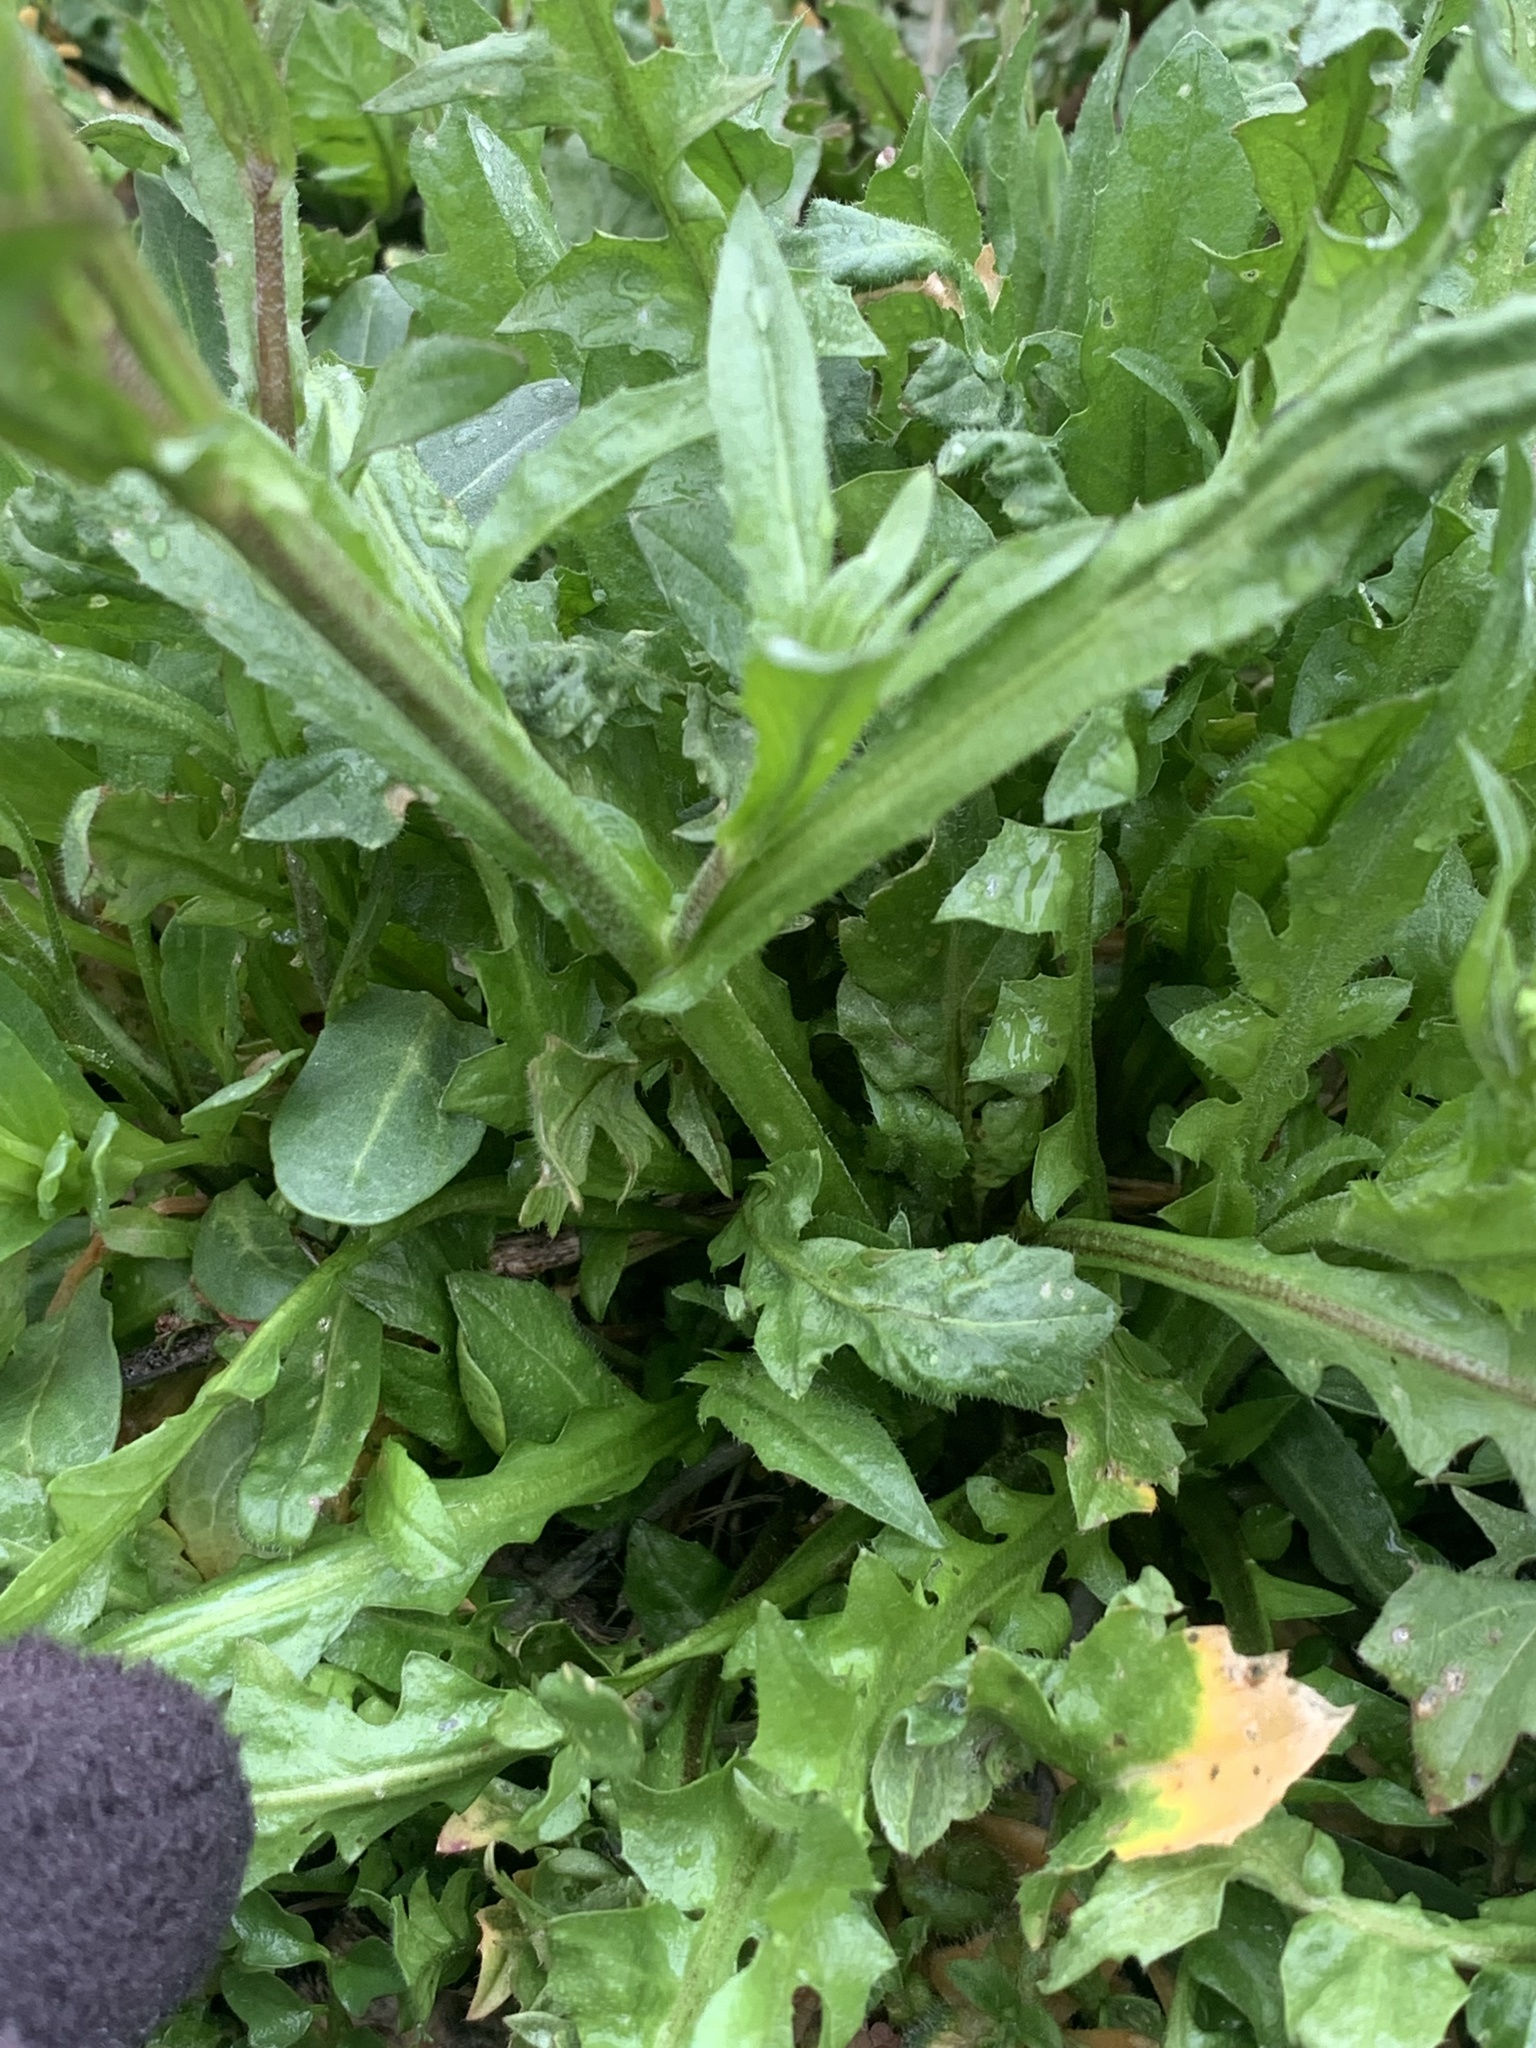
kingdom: Plantae
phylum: Tracheophyta
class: Magnoliopsida
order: Brassicales
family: Brassicaceae
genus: Capsella
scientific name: Capsella bursa-pastoris
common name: Shepherd's purse
